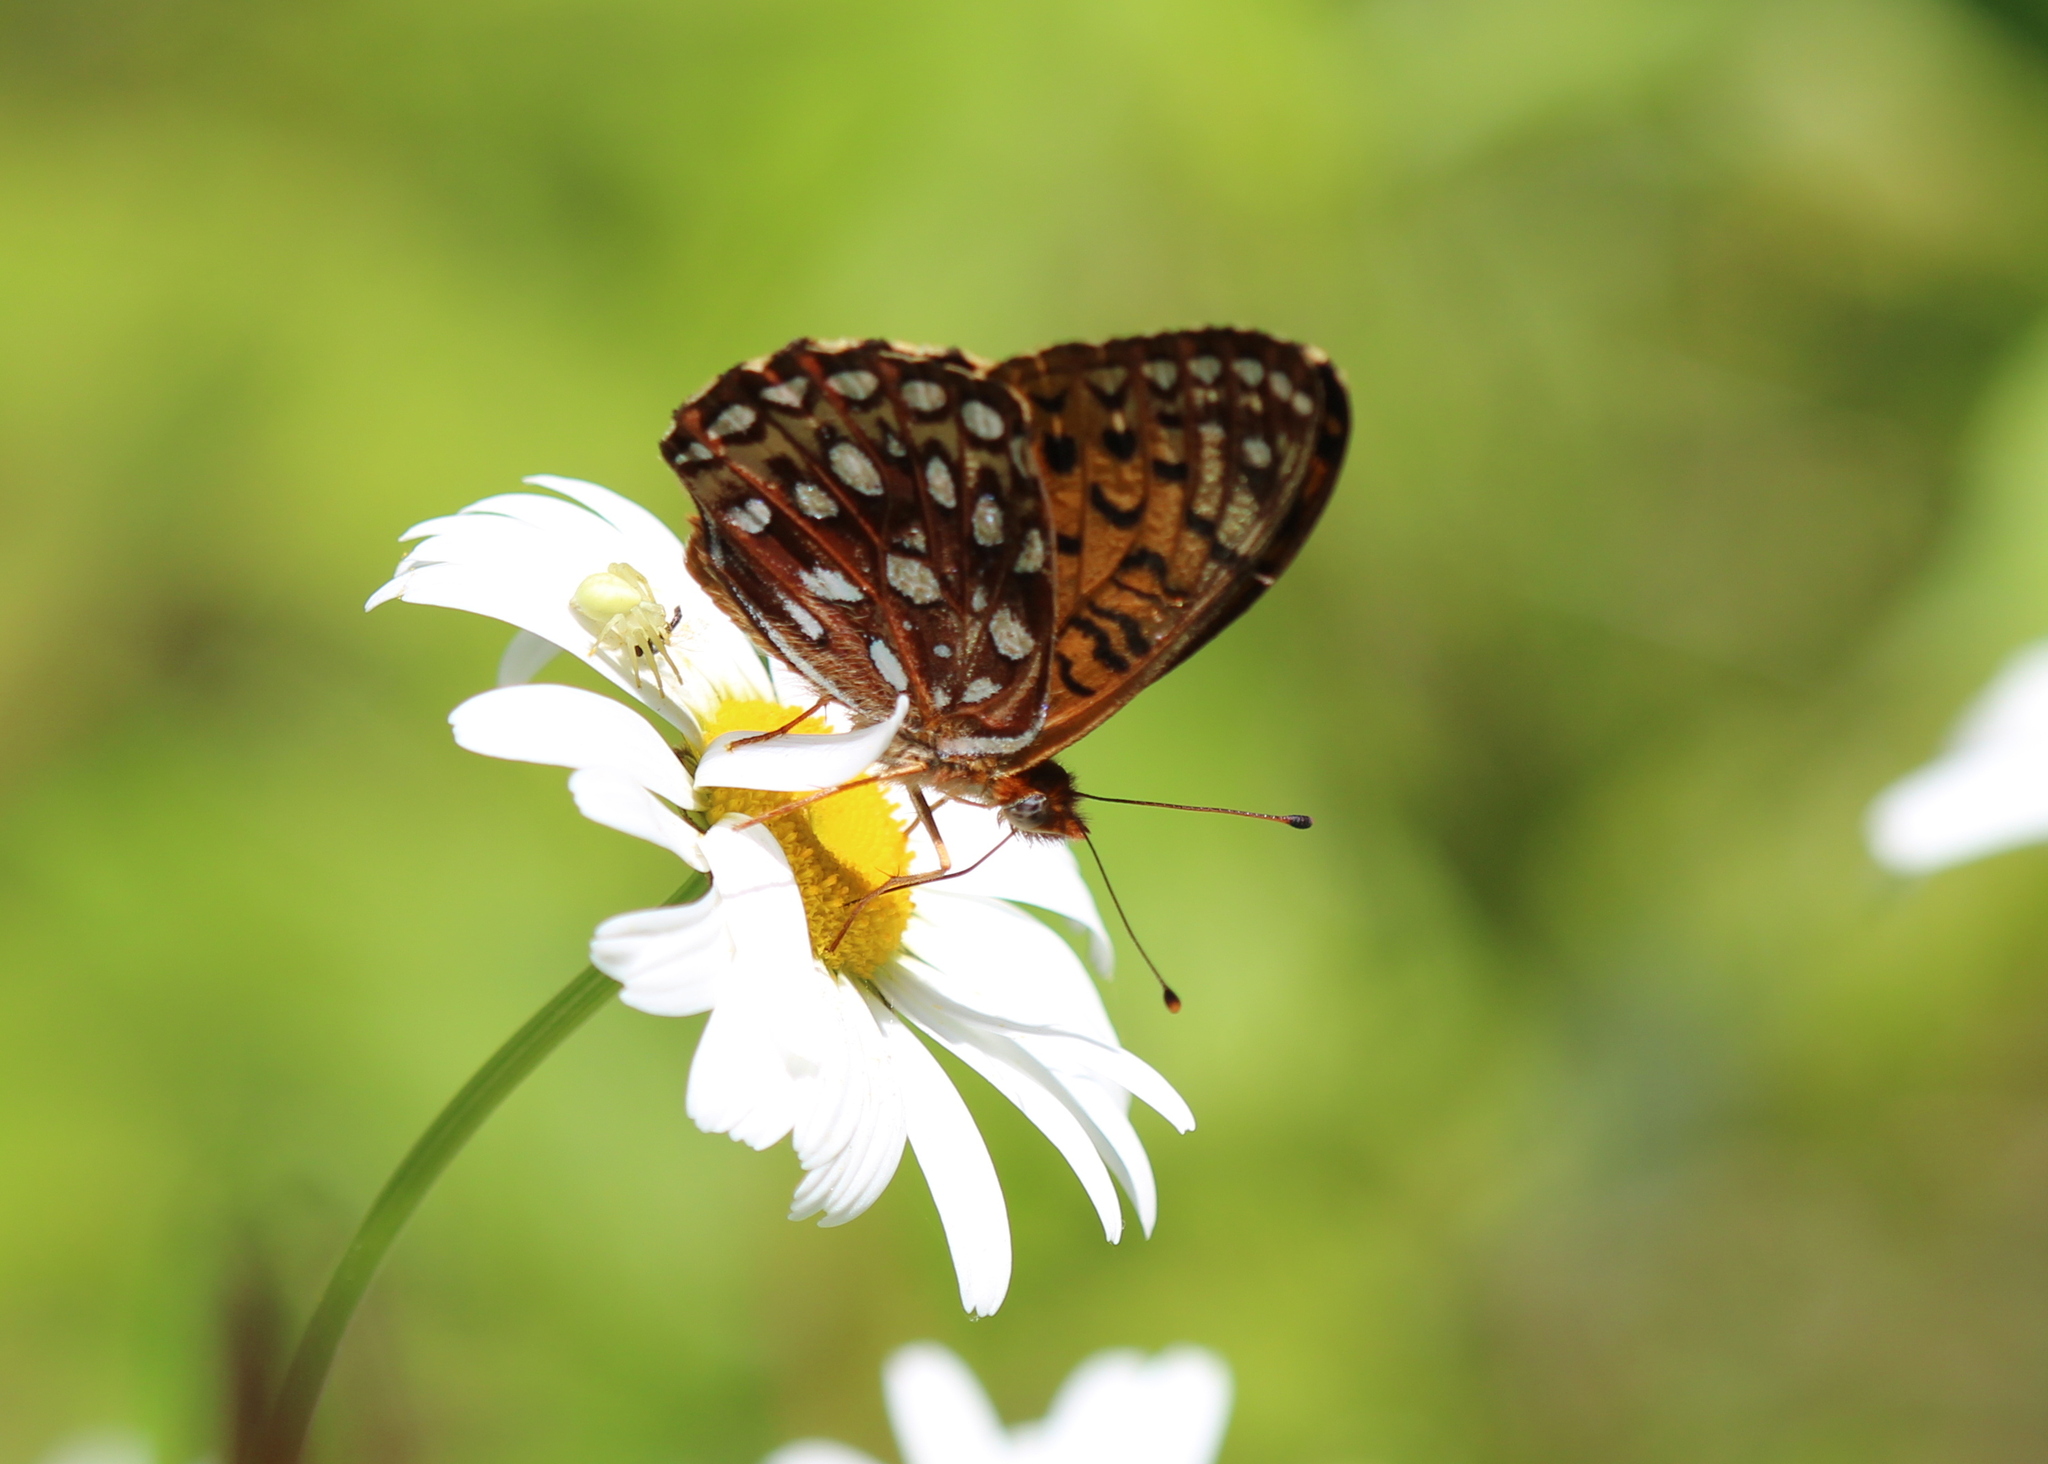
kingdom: Animalia
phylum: Arthropoda
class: Insecta
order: Lepidoptera
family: Nymphalidae
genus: Speyeria
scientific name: Speyeria atlantis
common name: Atlantis fritillary
